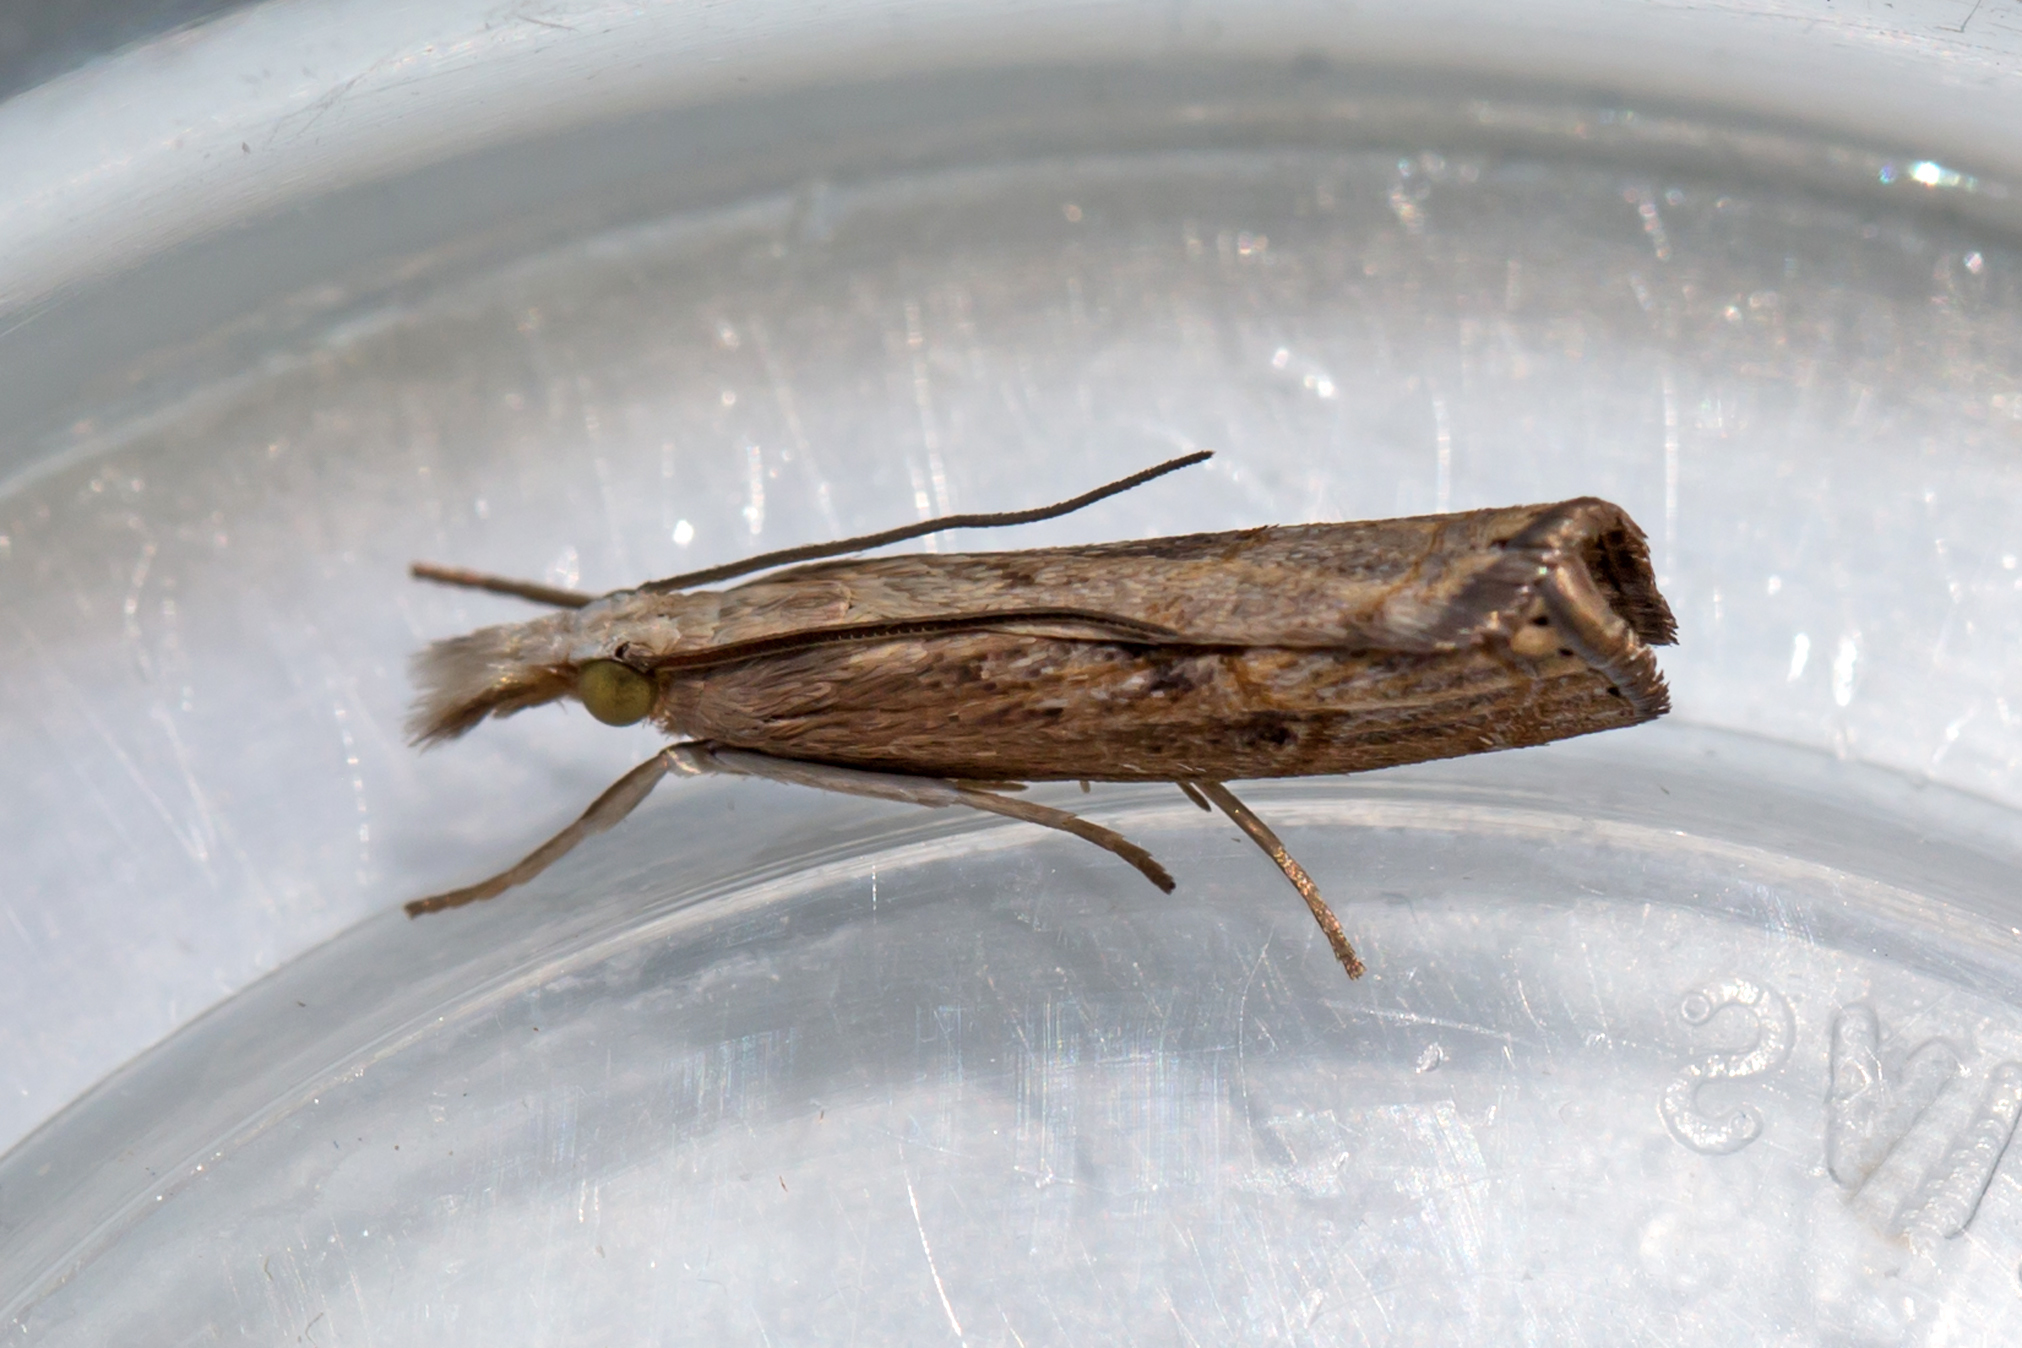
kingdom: Animalia
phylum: Arthropoda
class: Insecta
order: Lepidoptera
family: Crambidae
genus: Parapediasia
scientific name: Parapediasia teterellus
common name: Bluegrass webworm moth
